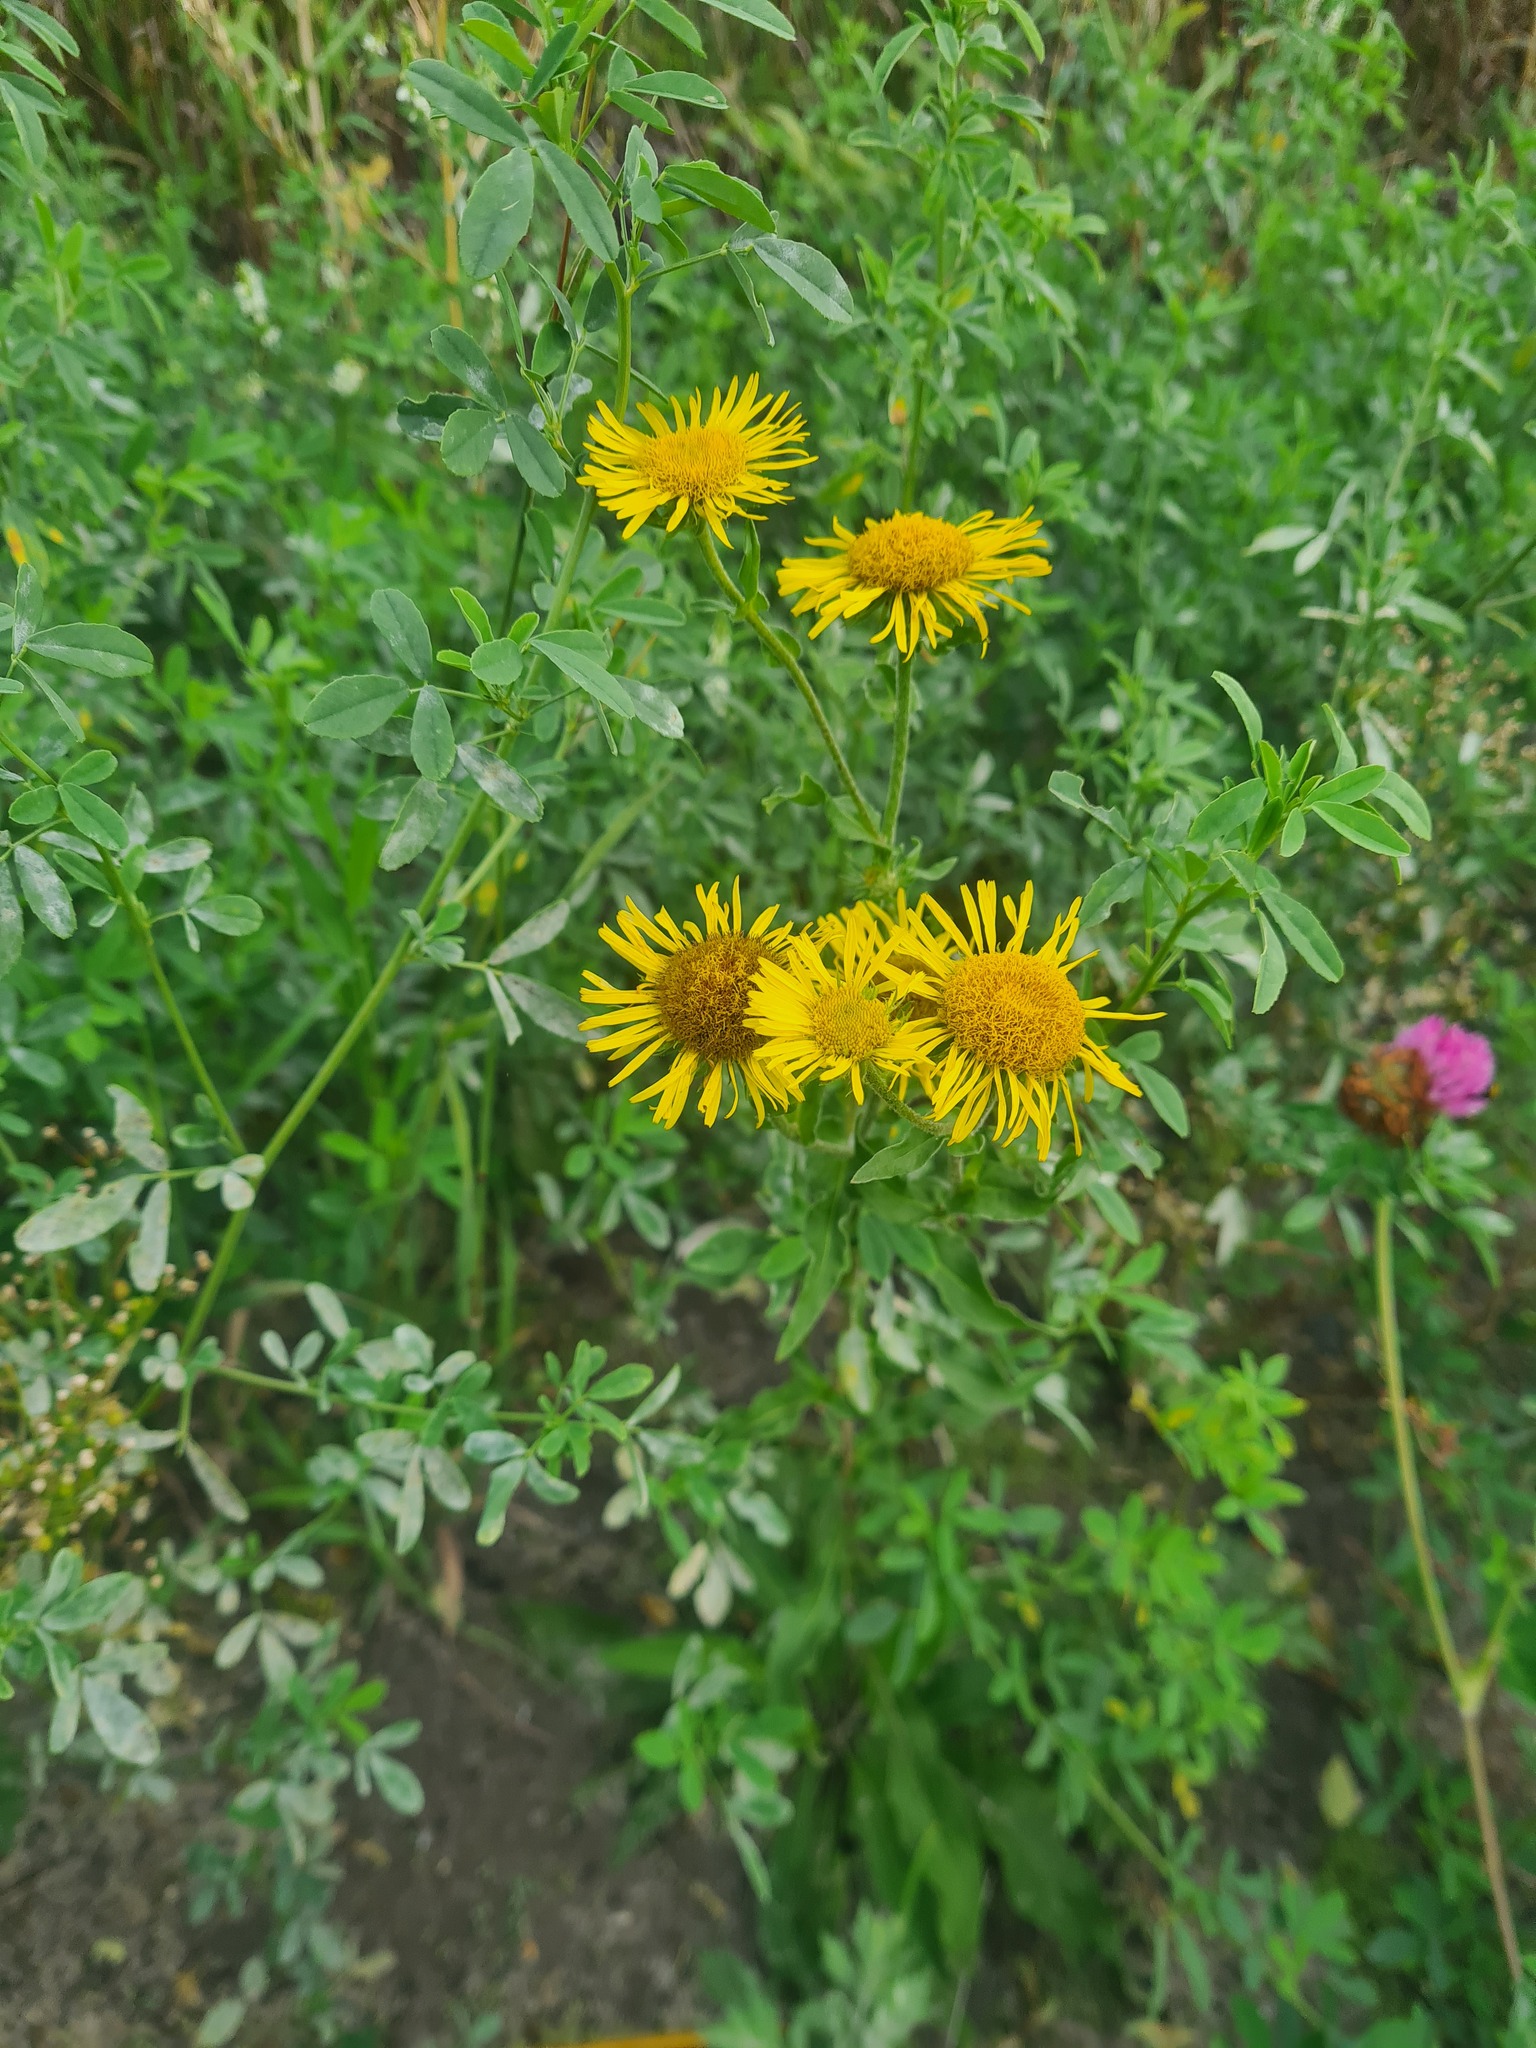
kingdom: Plantae
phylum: Tracheophyta
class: Magnoliopsida
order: Asterales
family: Asteraceae
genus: Pentanema
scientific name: Pentanema britannicum
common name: British elecampane
